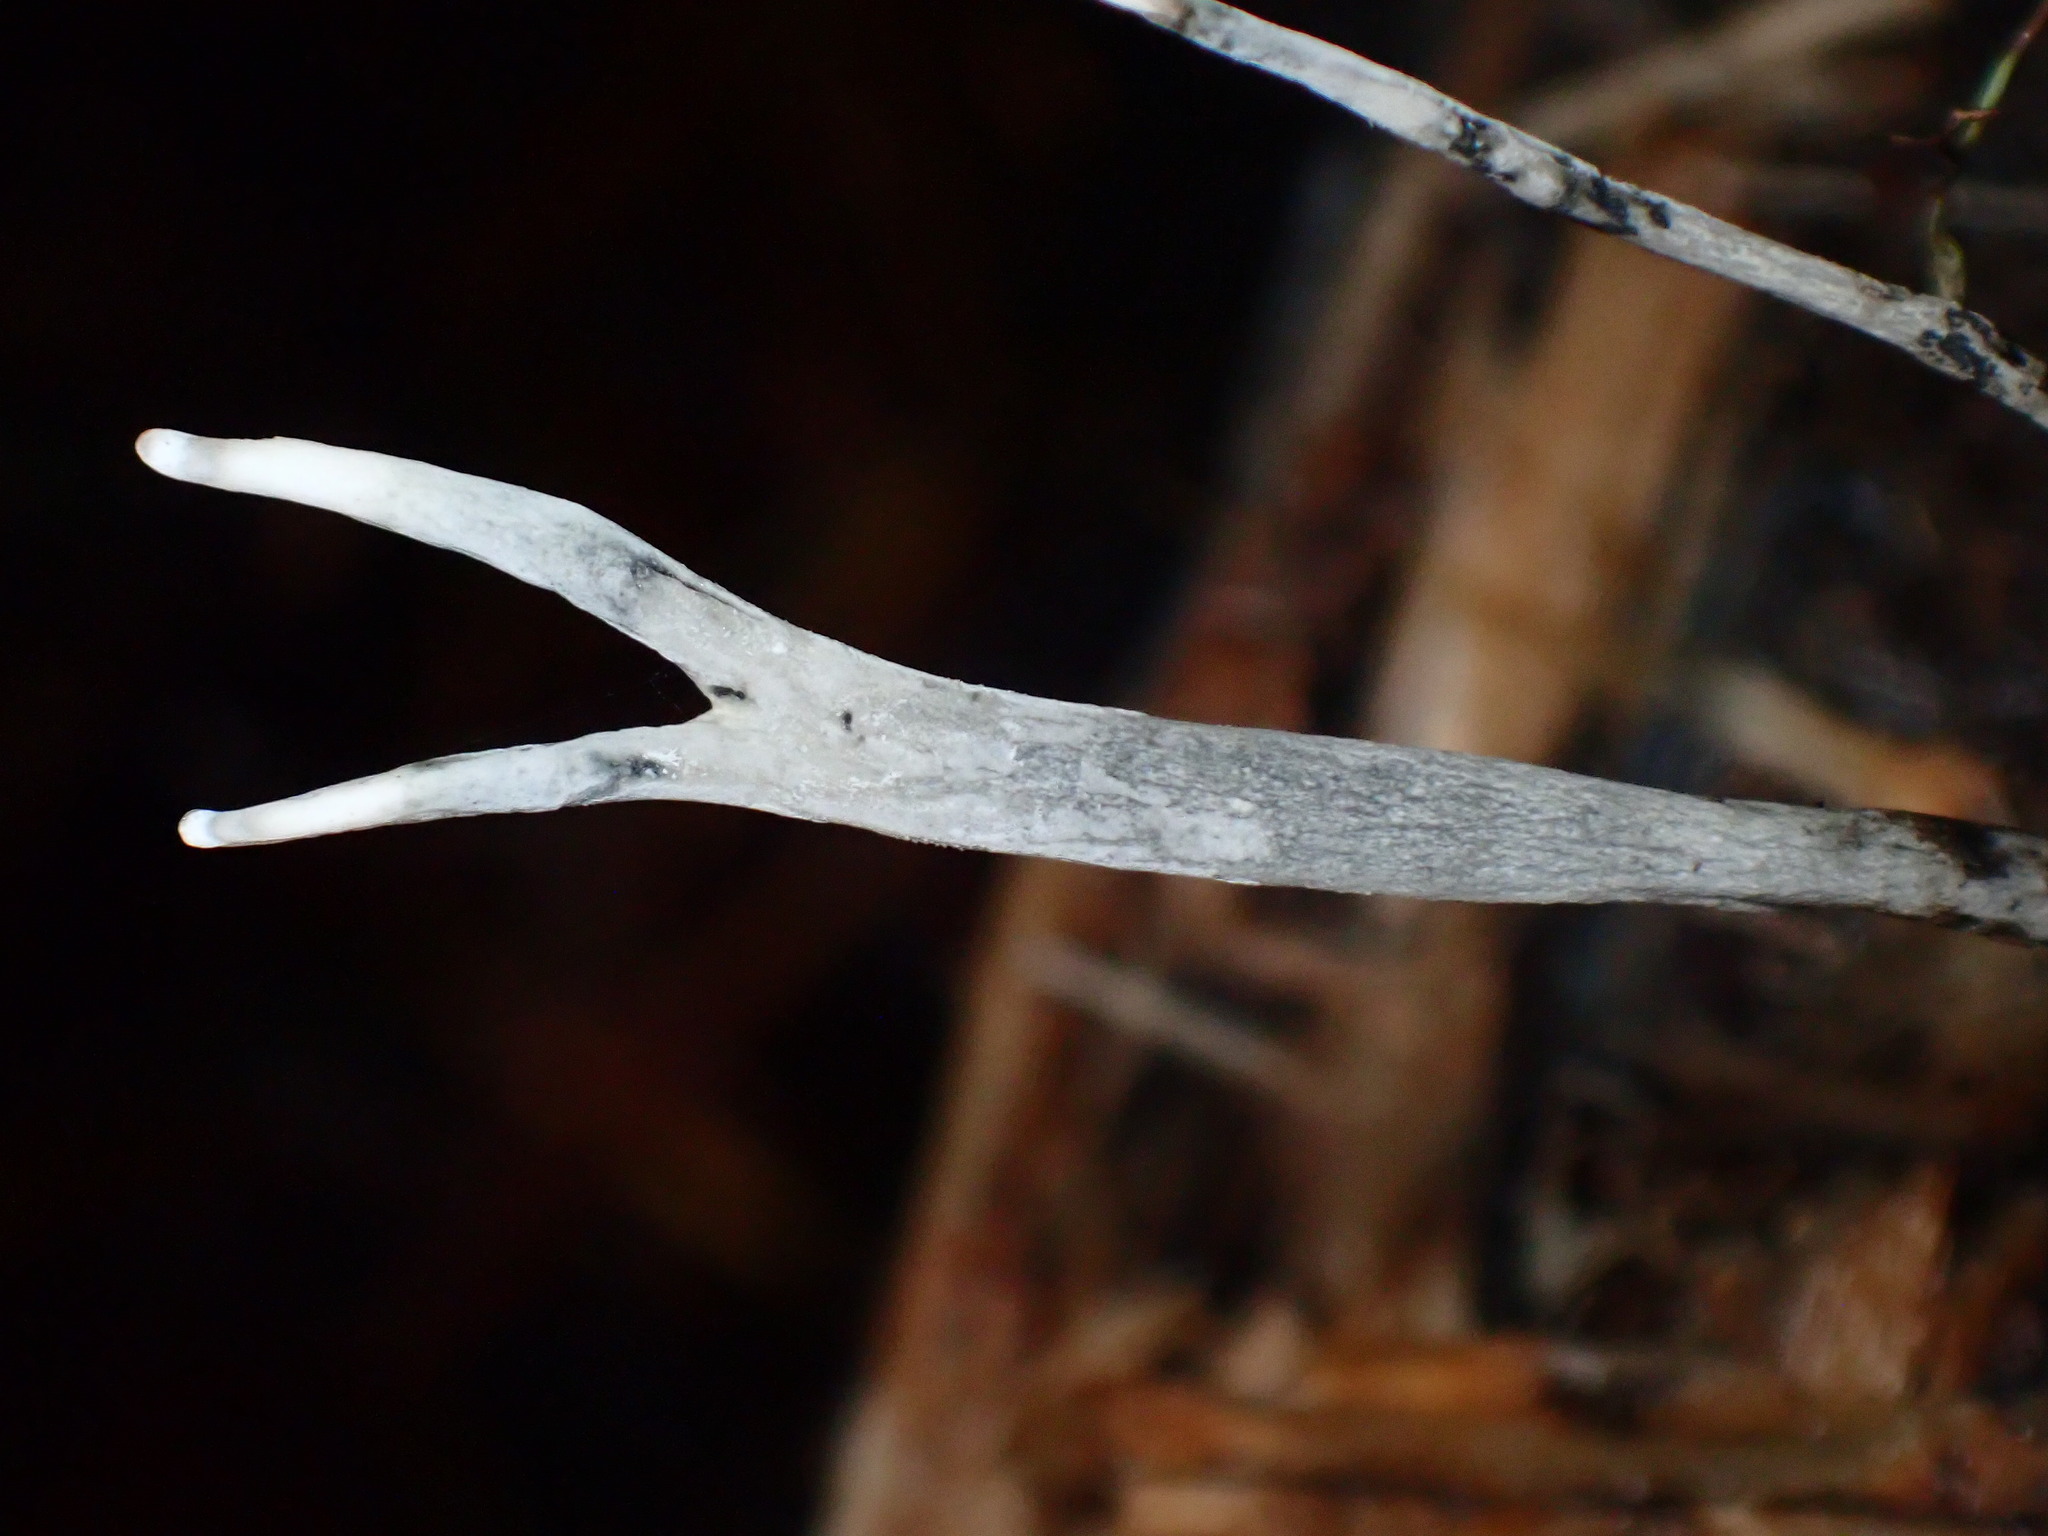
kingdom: Fungi
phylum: Ascomycota
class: Sordariomycetes
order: Xylariales
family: Xylariaceae
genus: Xylaria
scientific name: Xylaria hypoxylon
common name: Candle-snuff fungus
